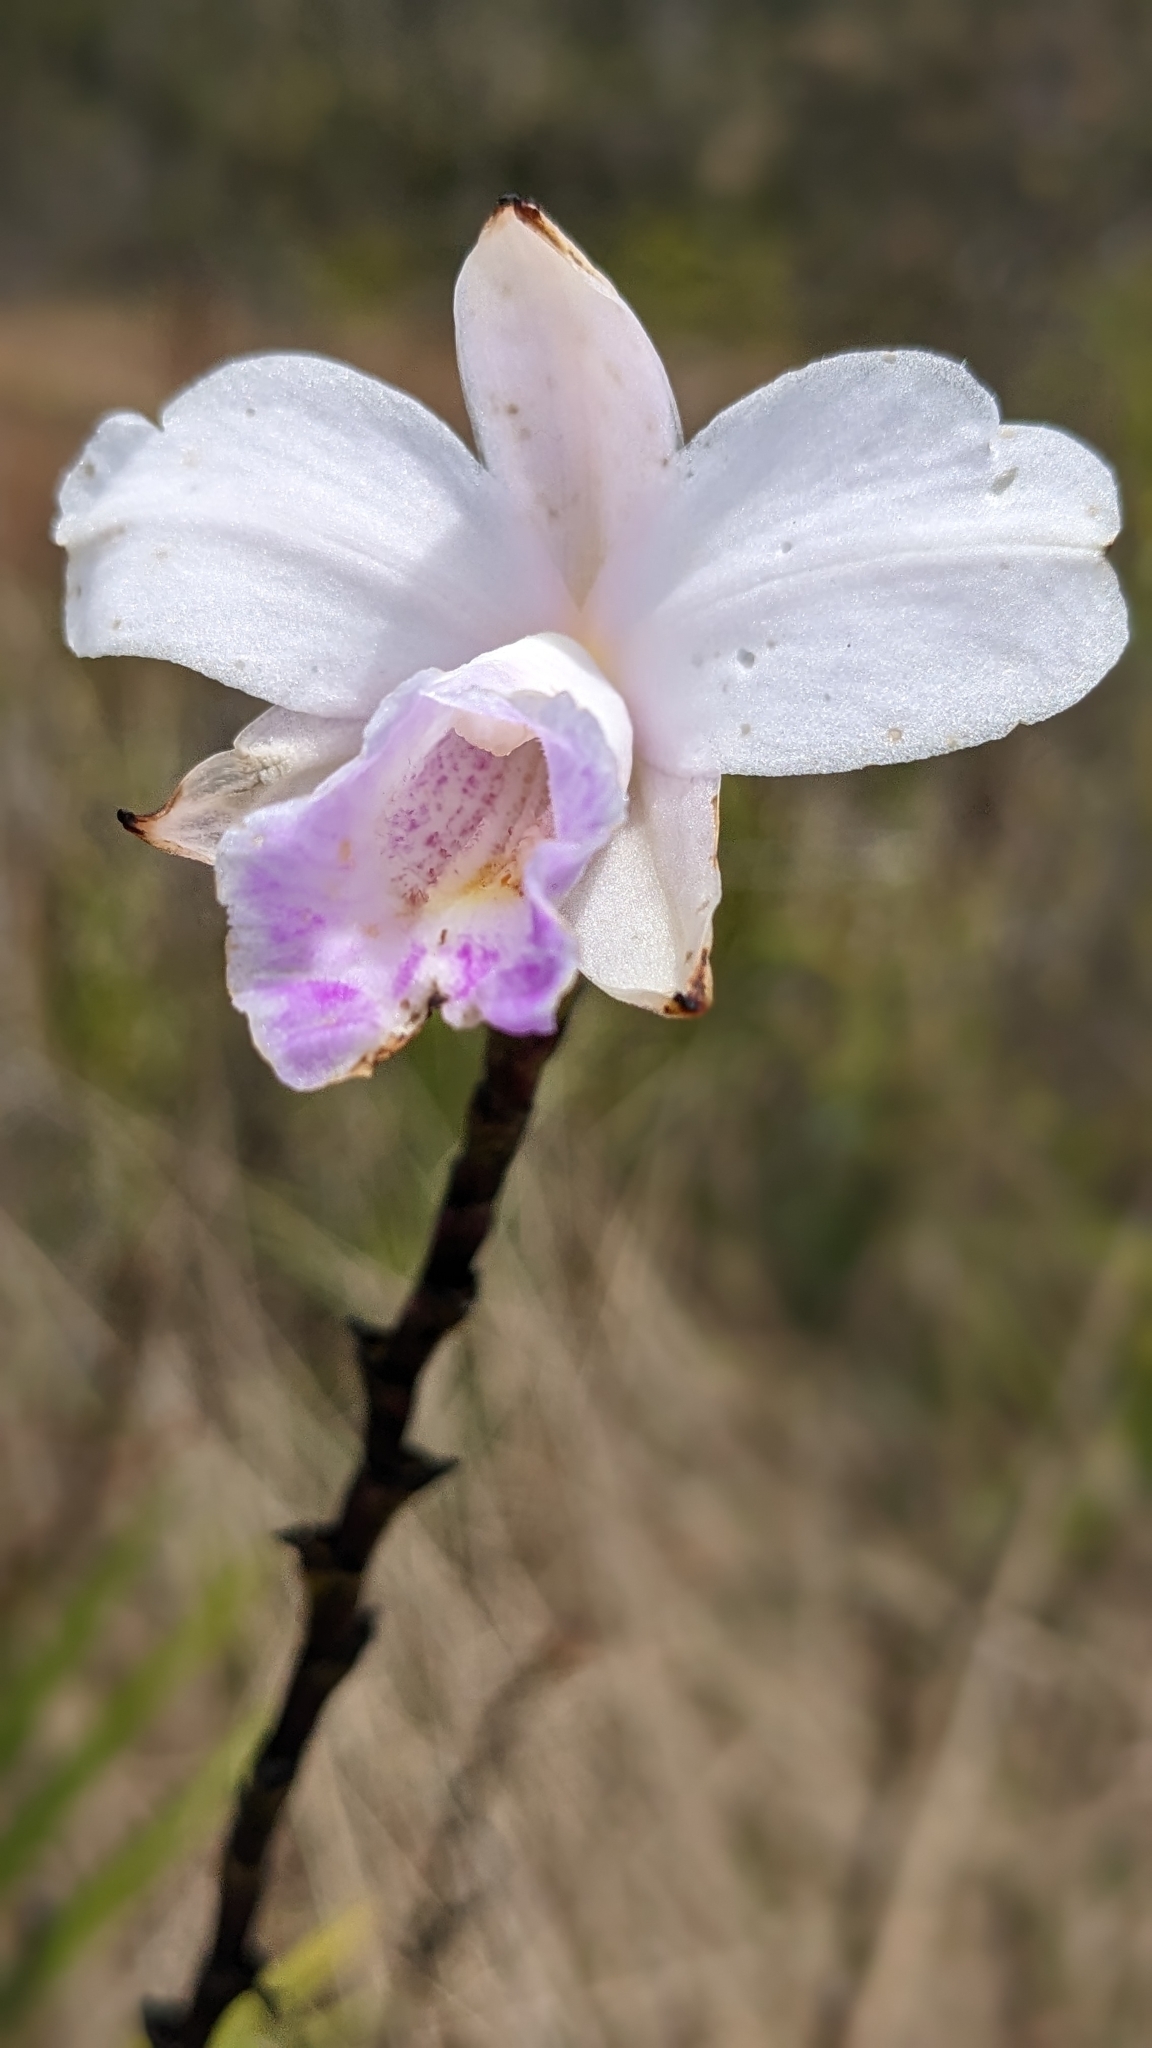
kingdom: Plantae
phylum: Tracheophyta
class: Liliopsida
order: Asparagales
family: Orchidaceae
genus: Arundina
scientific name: Arundina graminifolia
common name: Bamboo orchid
